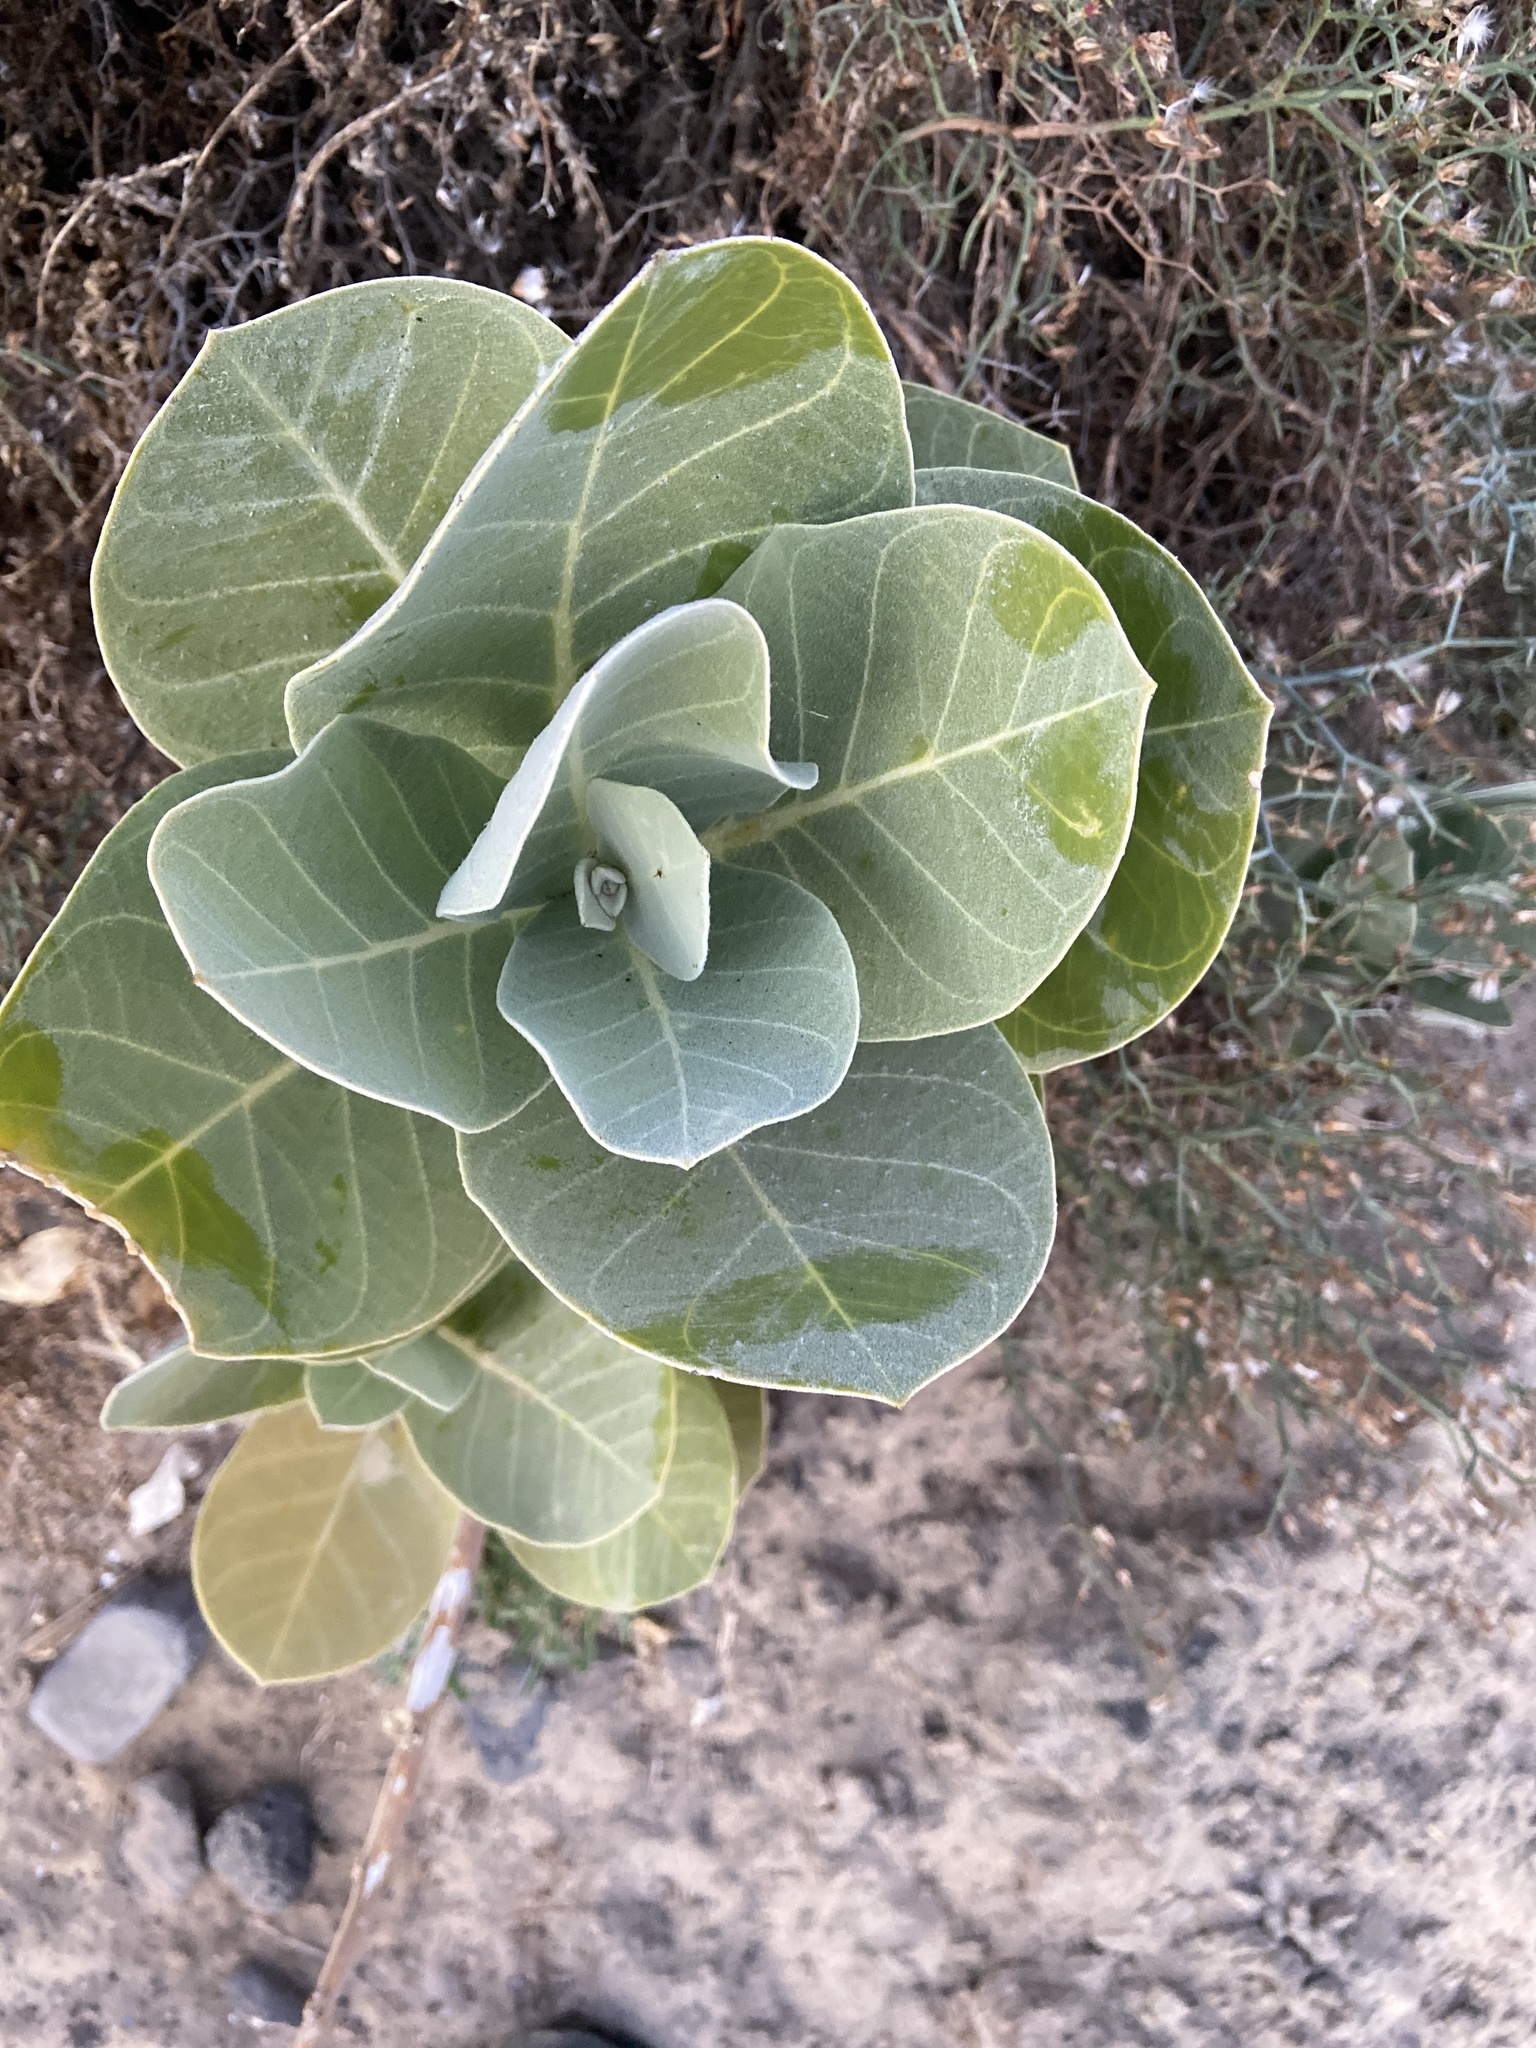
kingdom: Plantae
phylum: Tracheophyta
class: Magnoliopsida
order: Gentianales
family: Apocynaceae
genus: Calotropis
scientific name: Calotropis procera
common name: Roostertree
